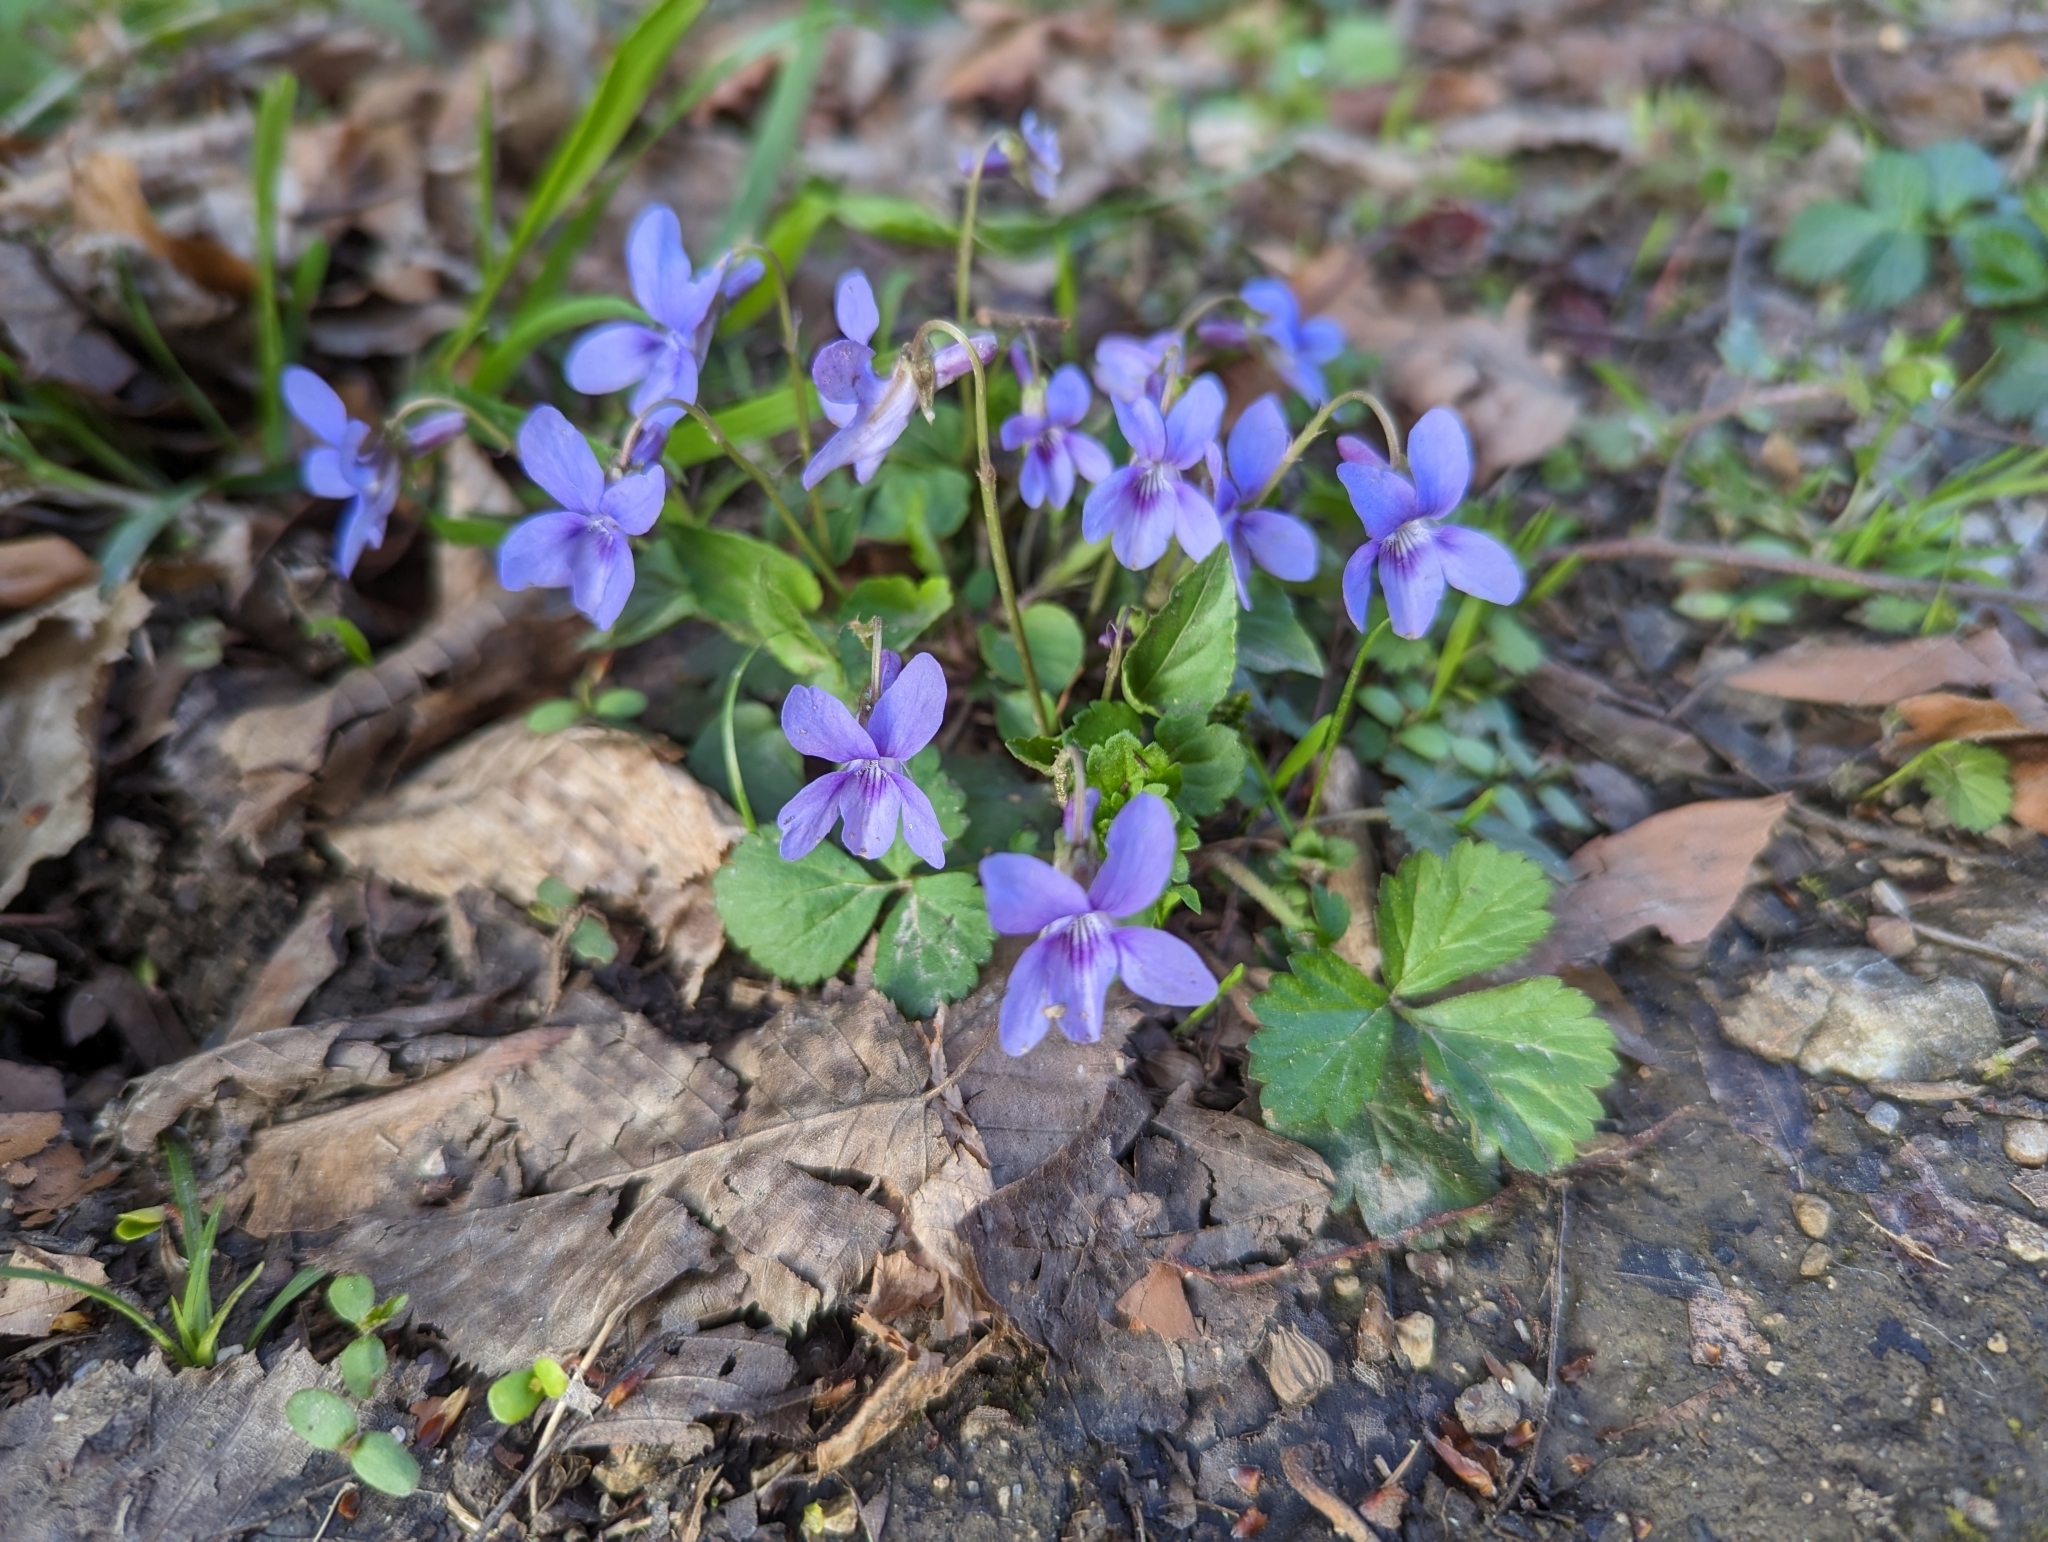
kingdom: Plantae
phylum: Tracheophyta
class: Magnoliopsida
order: Malpighiales
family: Violaceae
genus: Viola
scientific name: Viola reichenbachiana
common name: Early dog-violet
